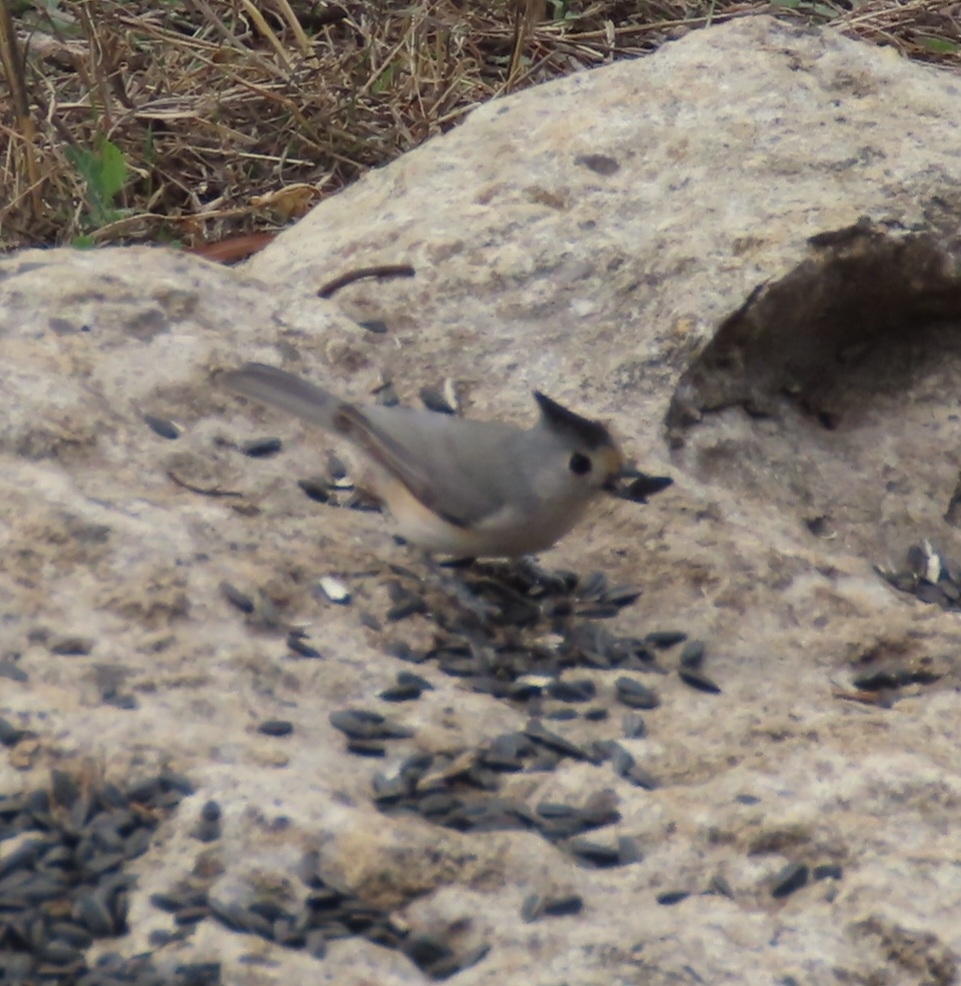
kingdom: Animalia
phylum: Chordata
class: Aves
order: Passeriformes
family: Paridae
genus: Baeolophus
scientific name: Baeolophus atricristatus
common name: Black-crested titmouse
